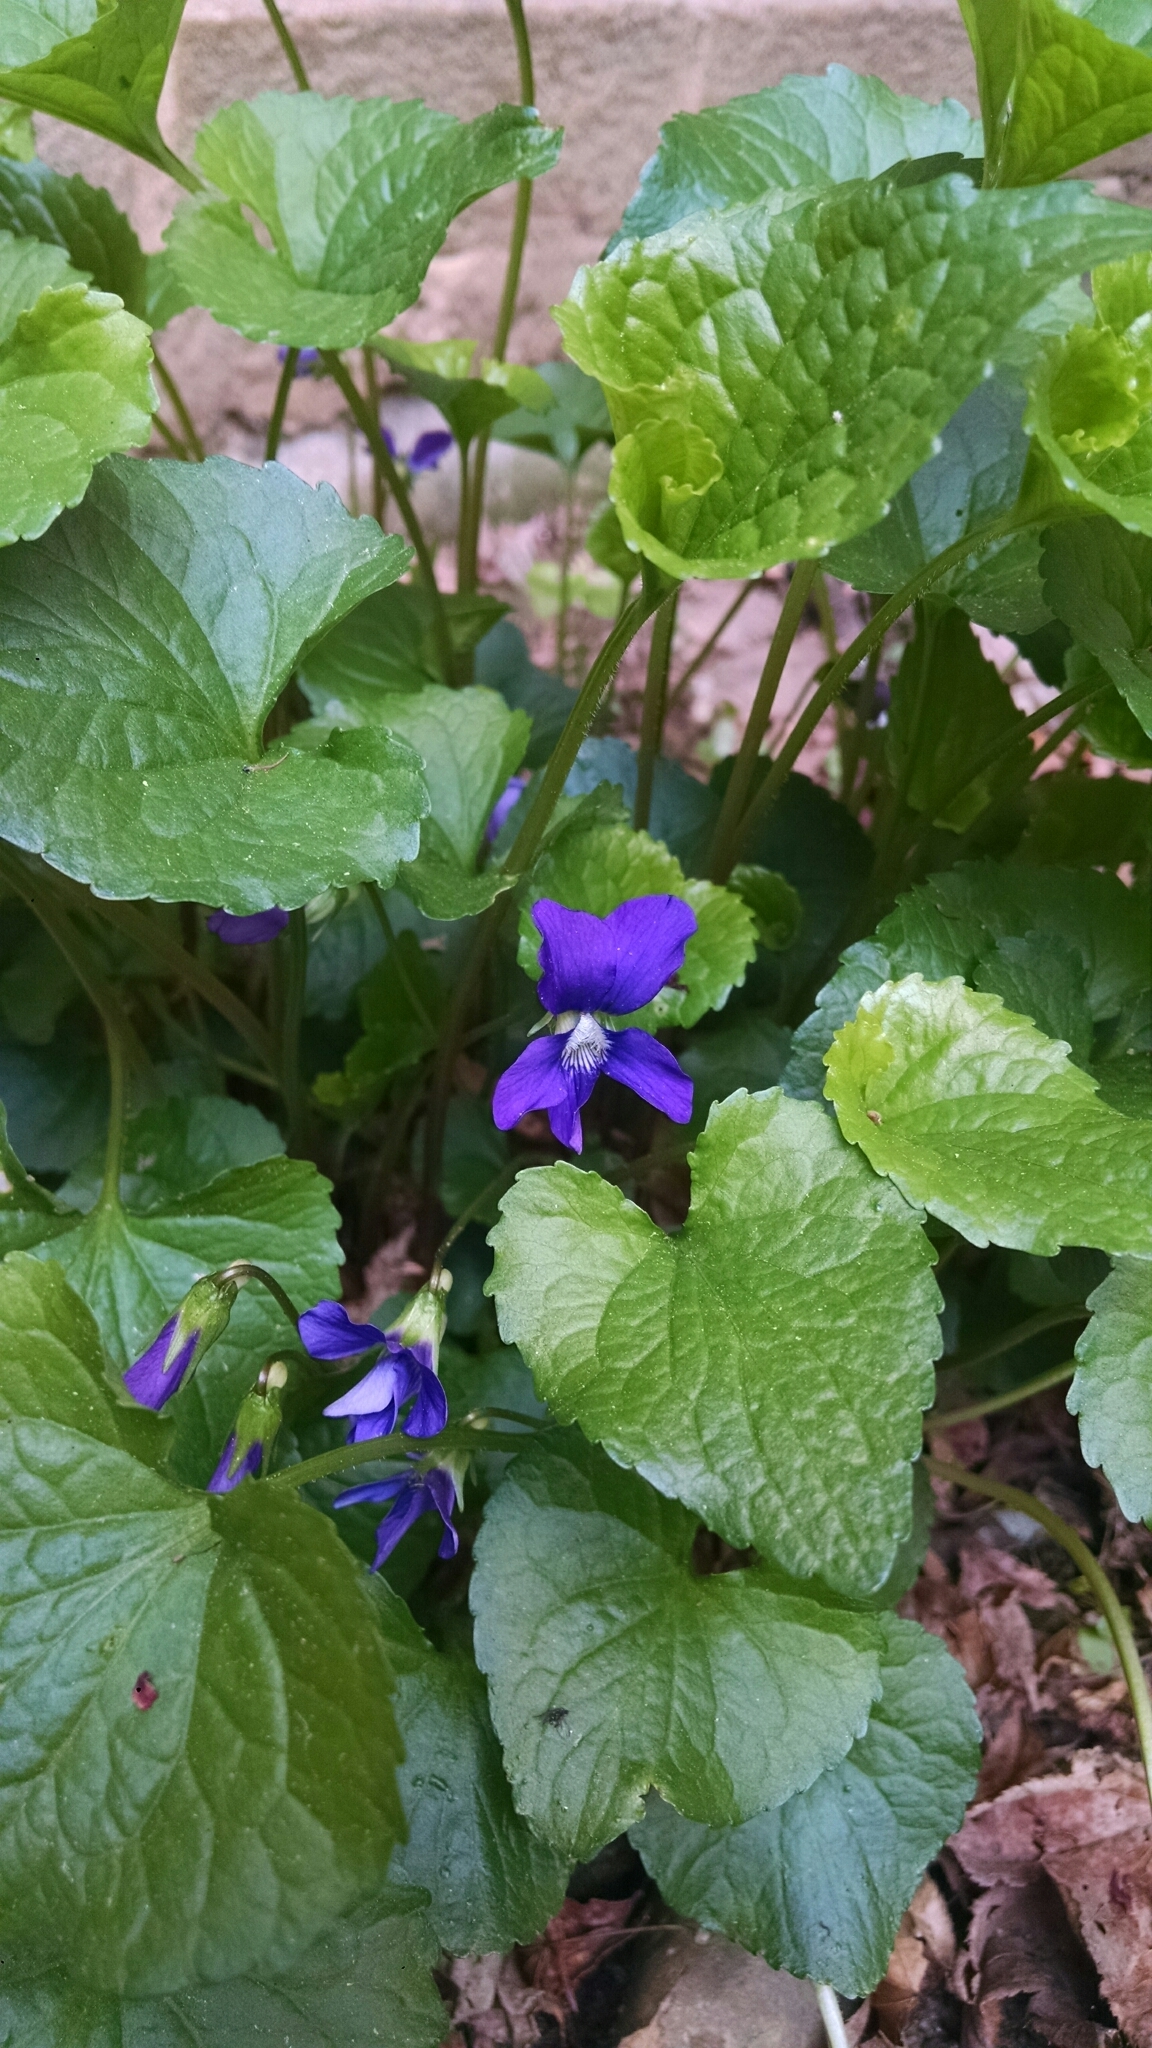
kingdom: Plantae
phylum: Tracheophyta
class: Magnoliopsida
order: Malpighiales
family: Violaceae
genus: Viola
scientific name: Viola sororia
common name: Dooryard violet
